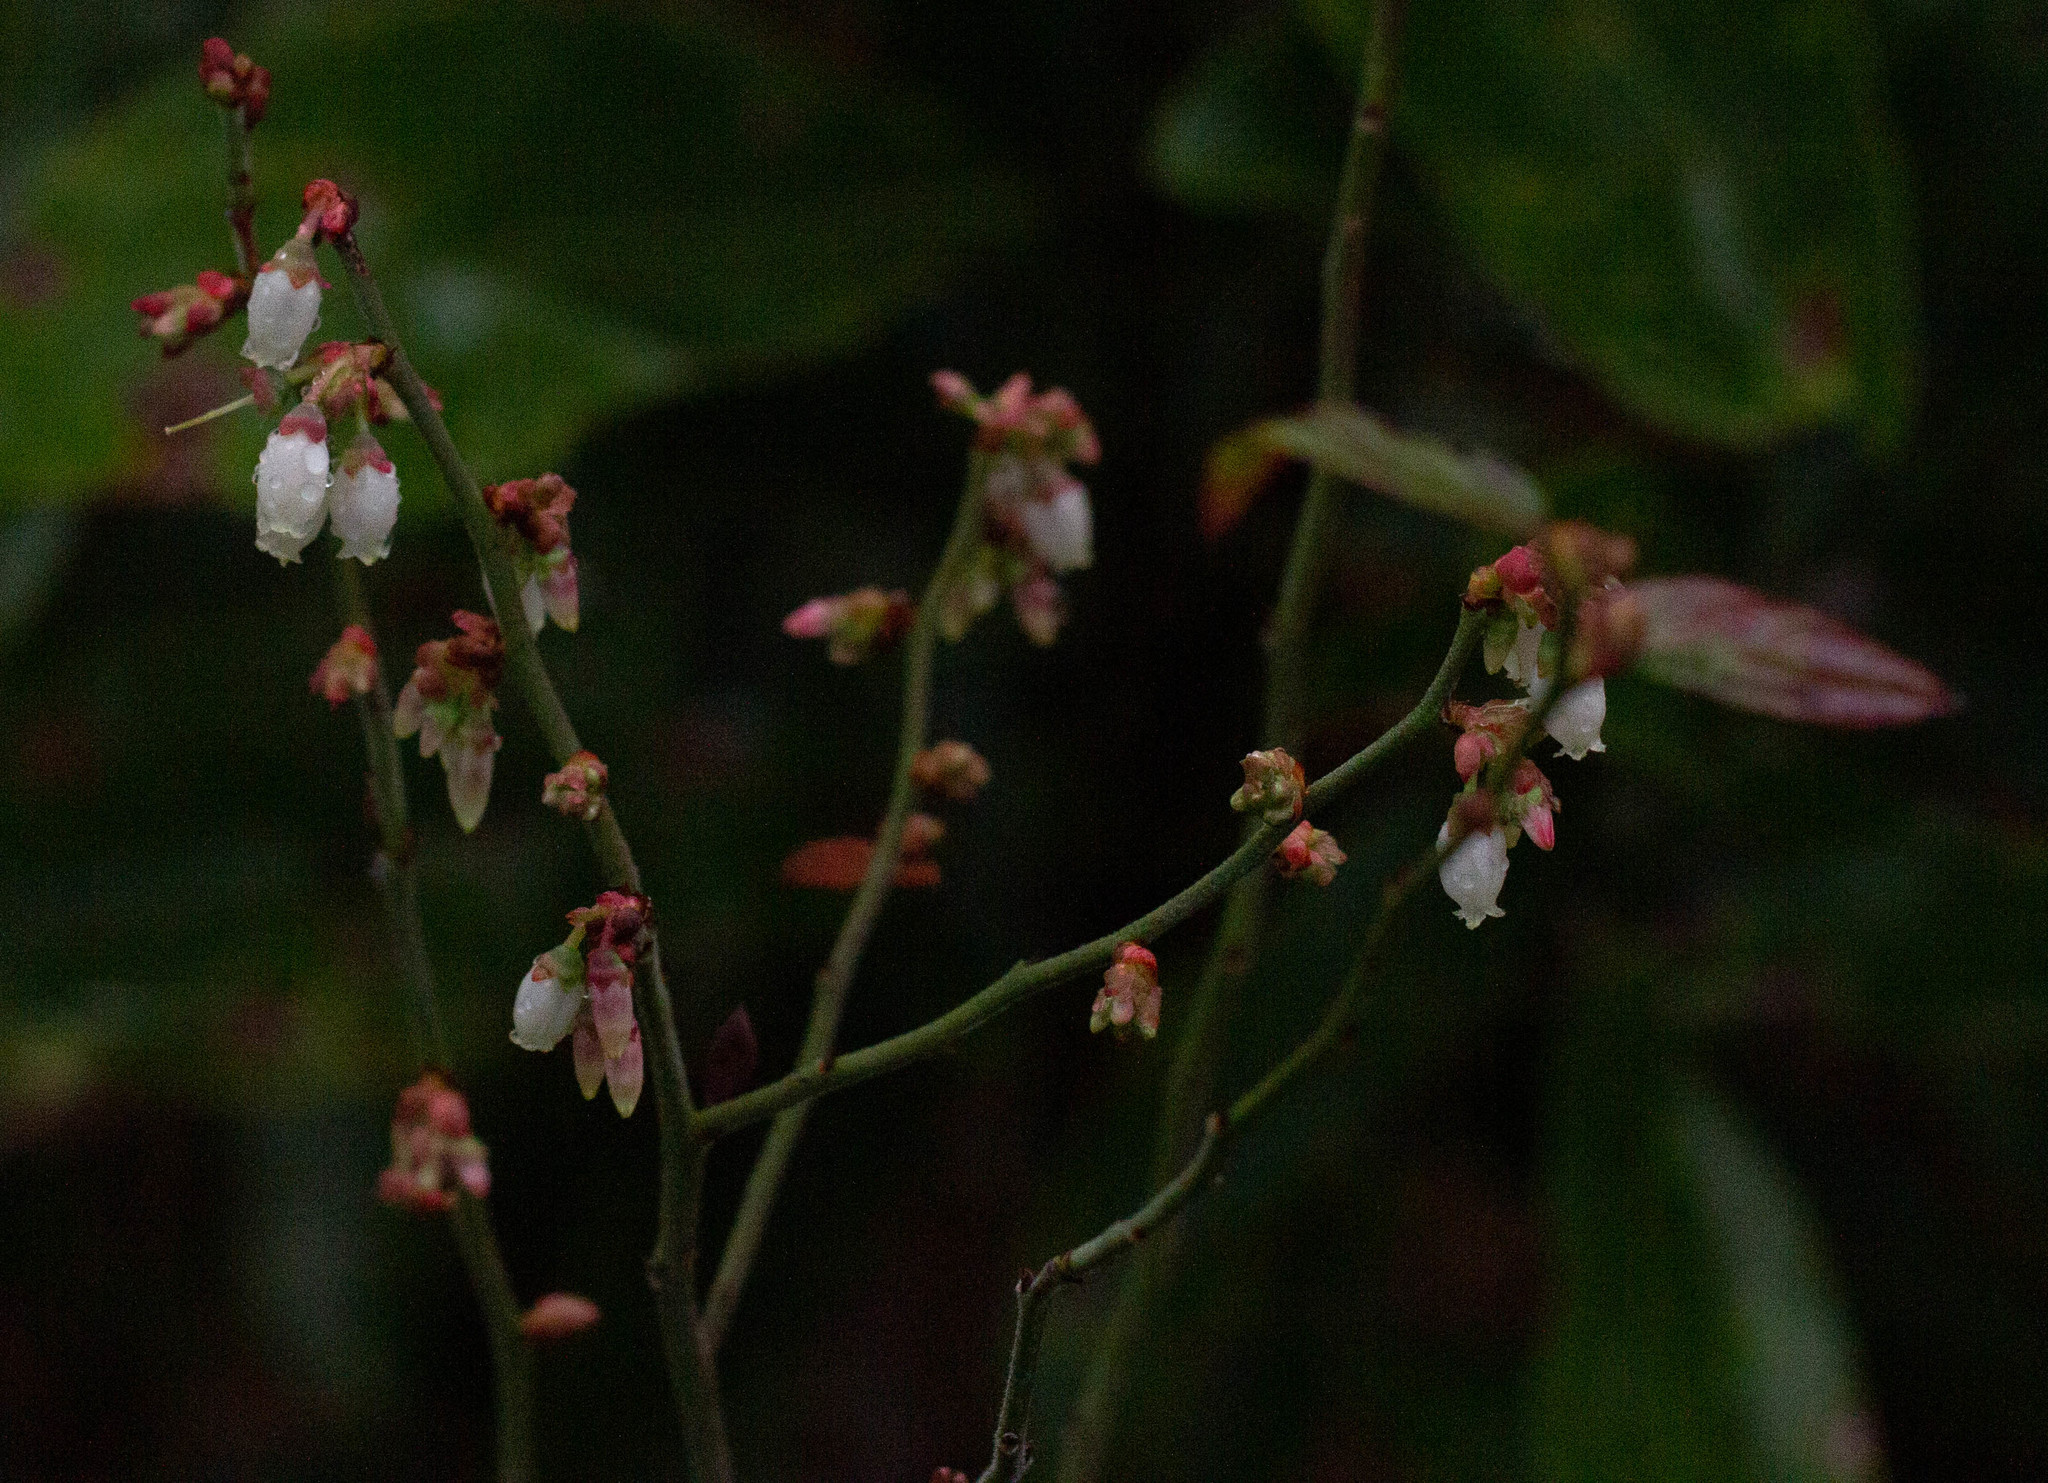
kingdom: Plantae
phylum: Tracheophyta
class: Magnoliopsida
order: Ericales
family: Ericaceae
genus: Vaccinium
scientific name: Vaccinium corymbosum
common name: Blueberry
